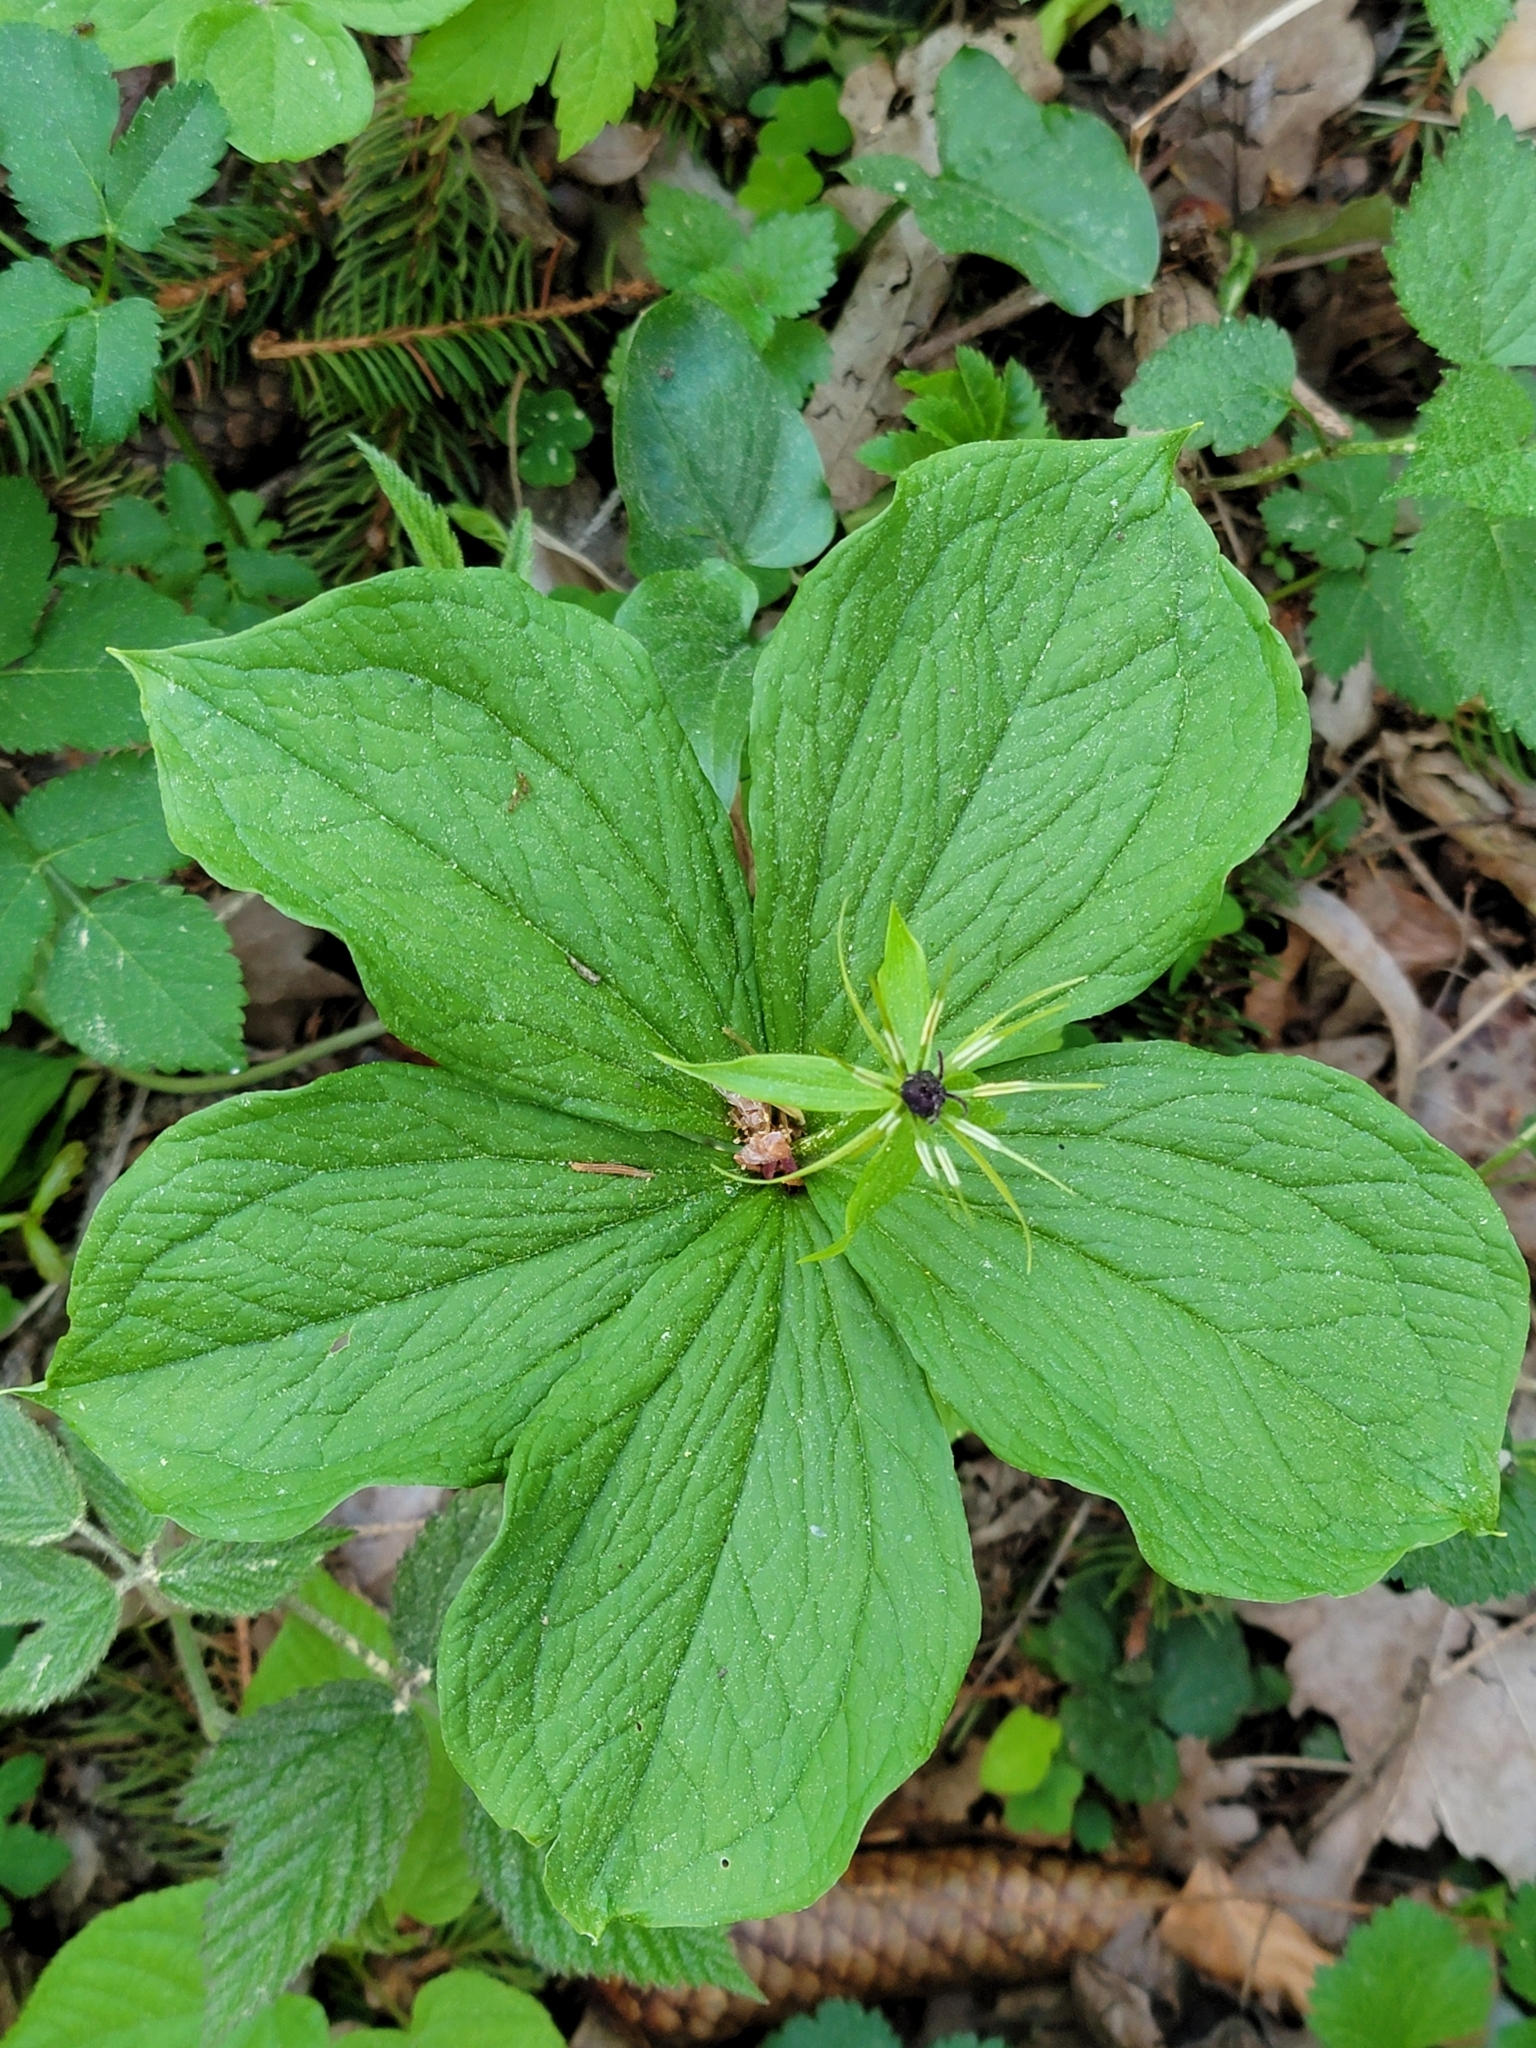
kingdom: Plantae
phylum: Tracheophyta
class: Liliopsida
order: Liliales
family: Melanthiaceae
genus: Paris
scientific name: Paris quadrifolia
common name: Herb-paris
